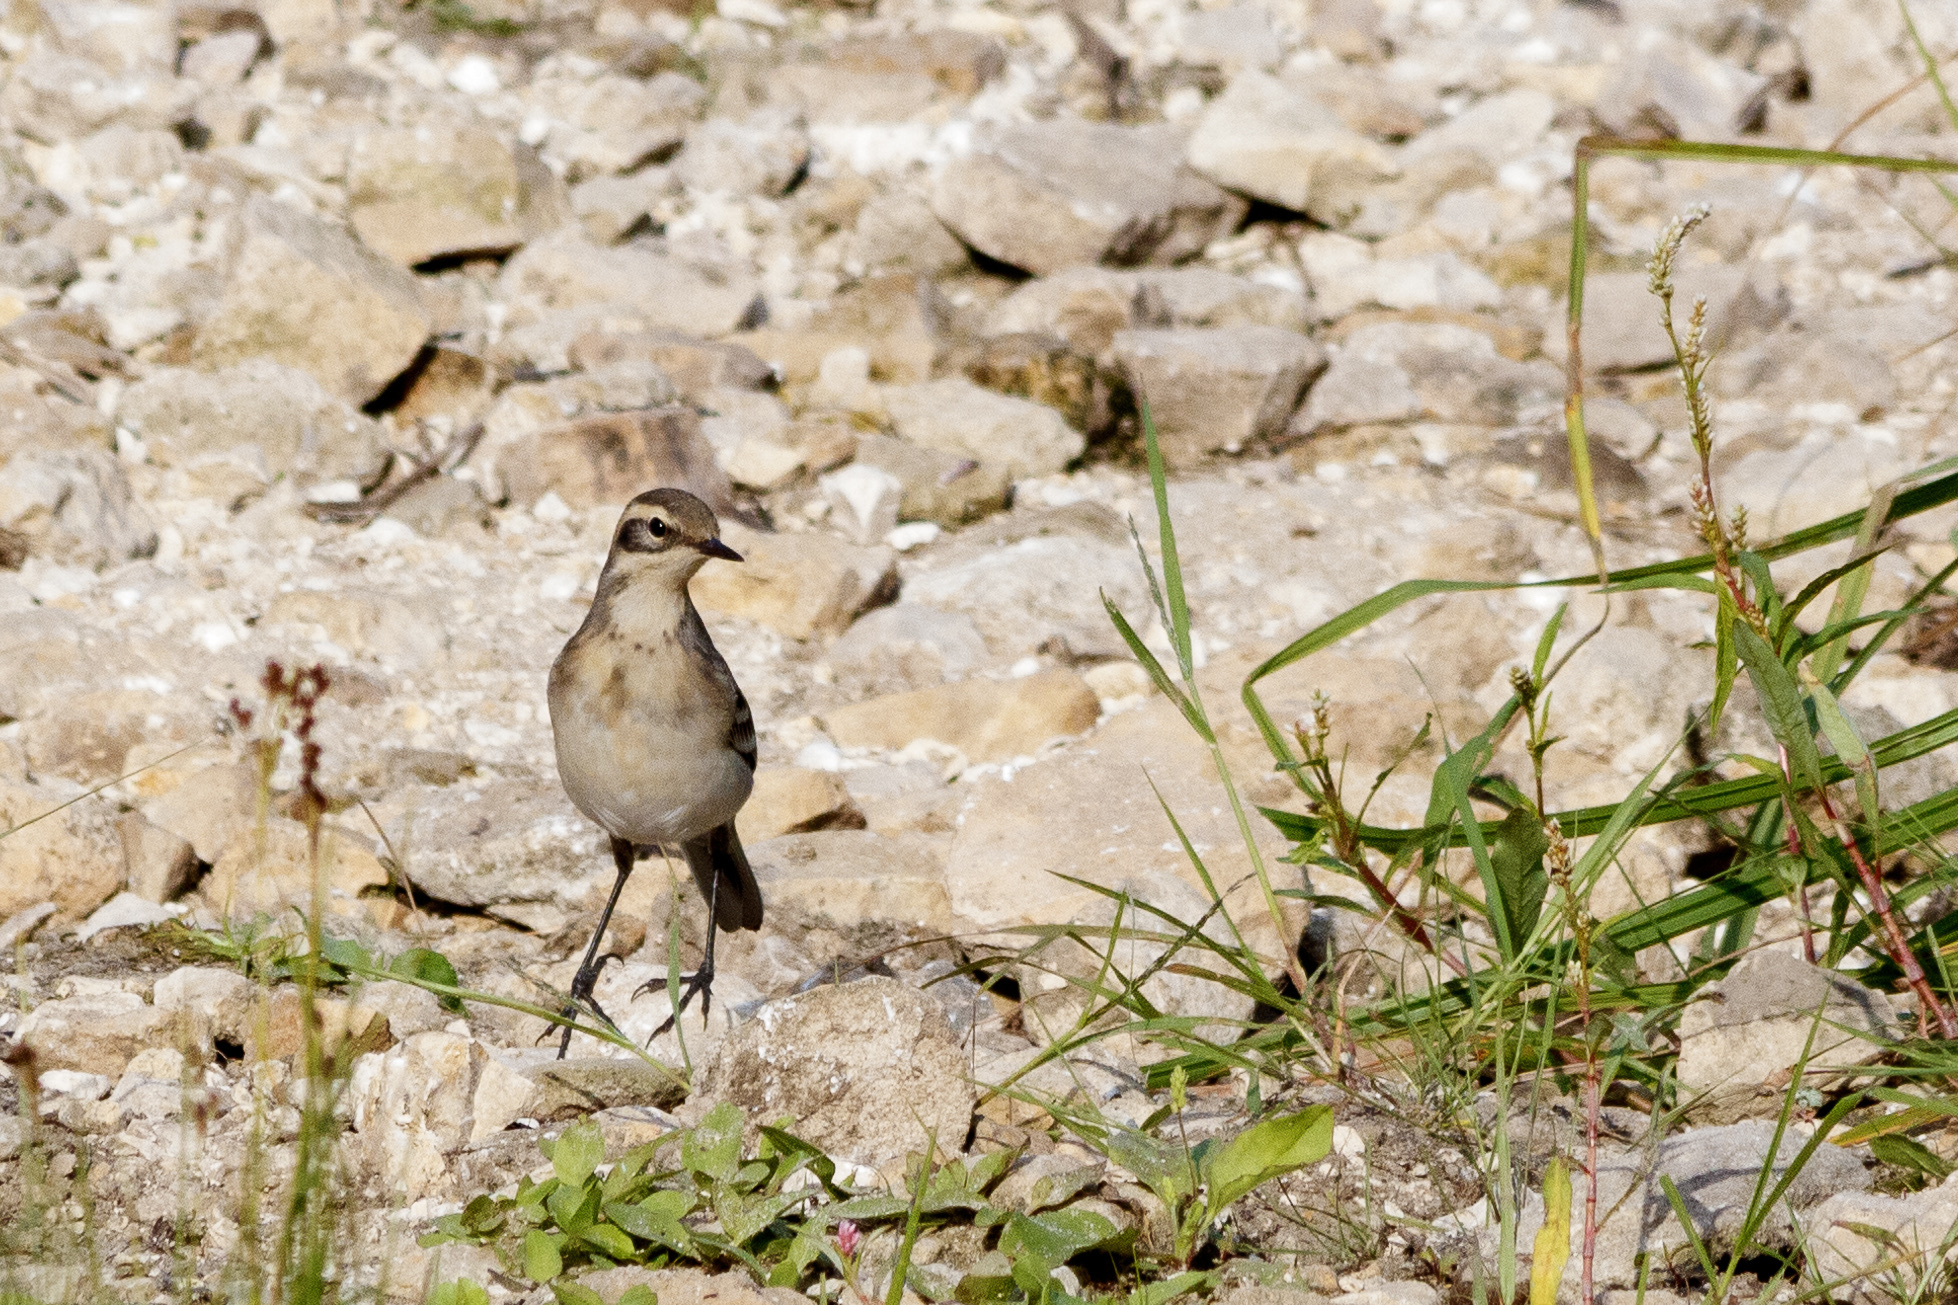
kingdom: Animalia
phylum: Chordata
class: Aves
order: Passeriformes
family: Motacillidae
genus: Motacilla
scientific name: Motacilla citreola
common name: Citrine wagtail
